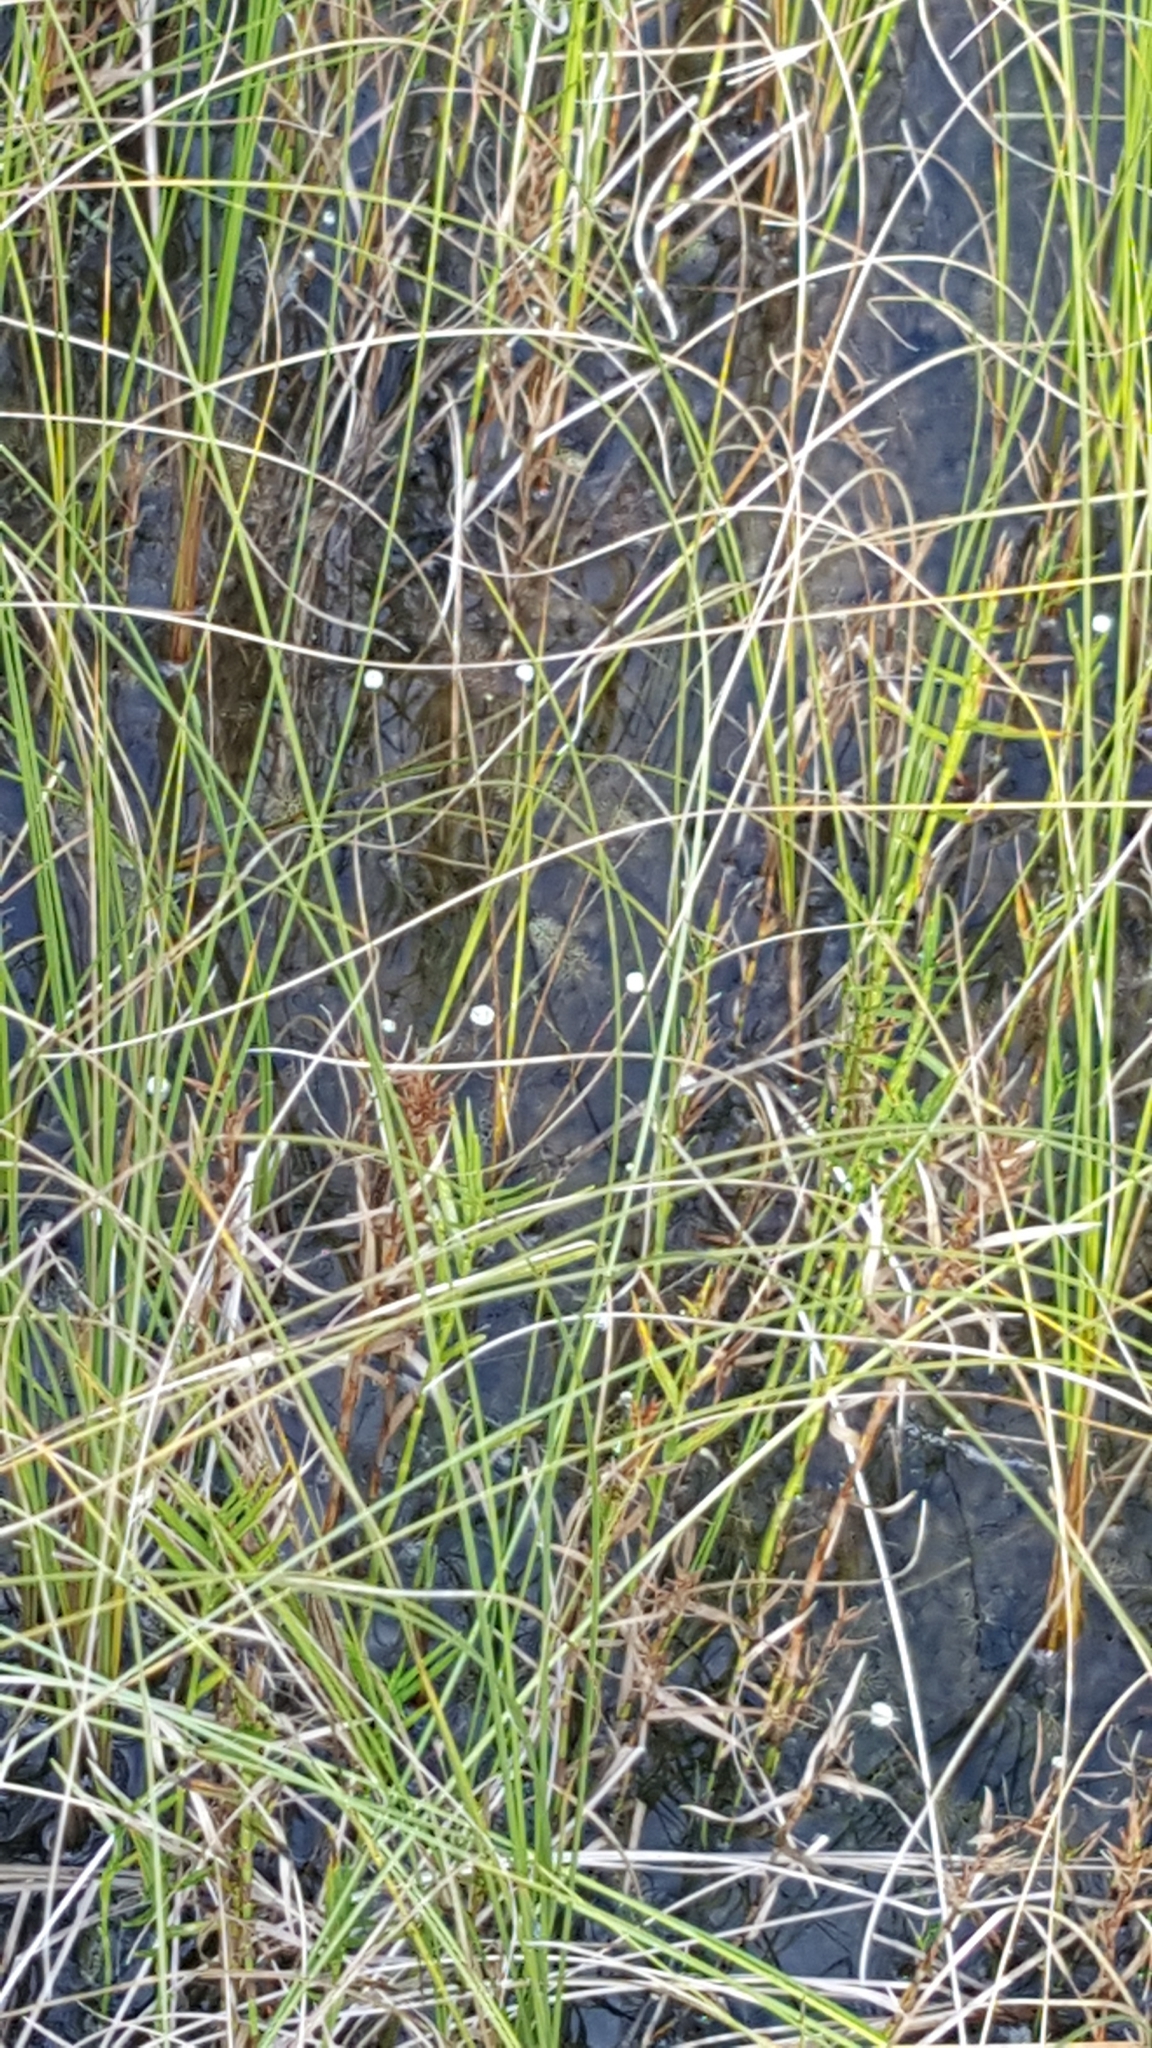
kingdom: Plantae
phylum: Tracheophyta
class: Liliopsida
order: Poales
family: Eriocaulaceae
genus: Eriocaulon
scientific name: Eriocaulon aquaticum
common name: Pipewort
